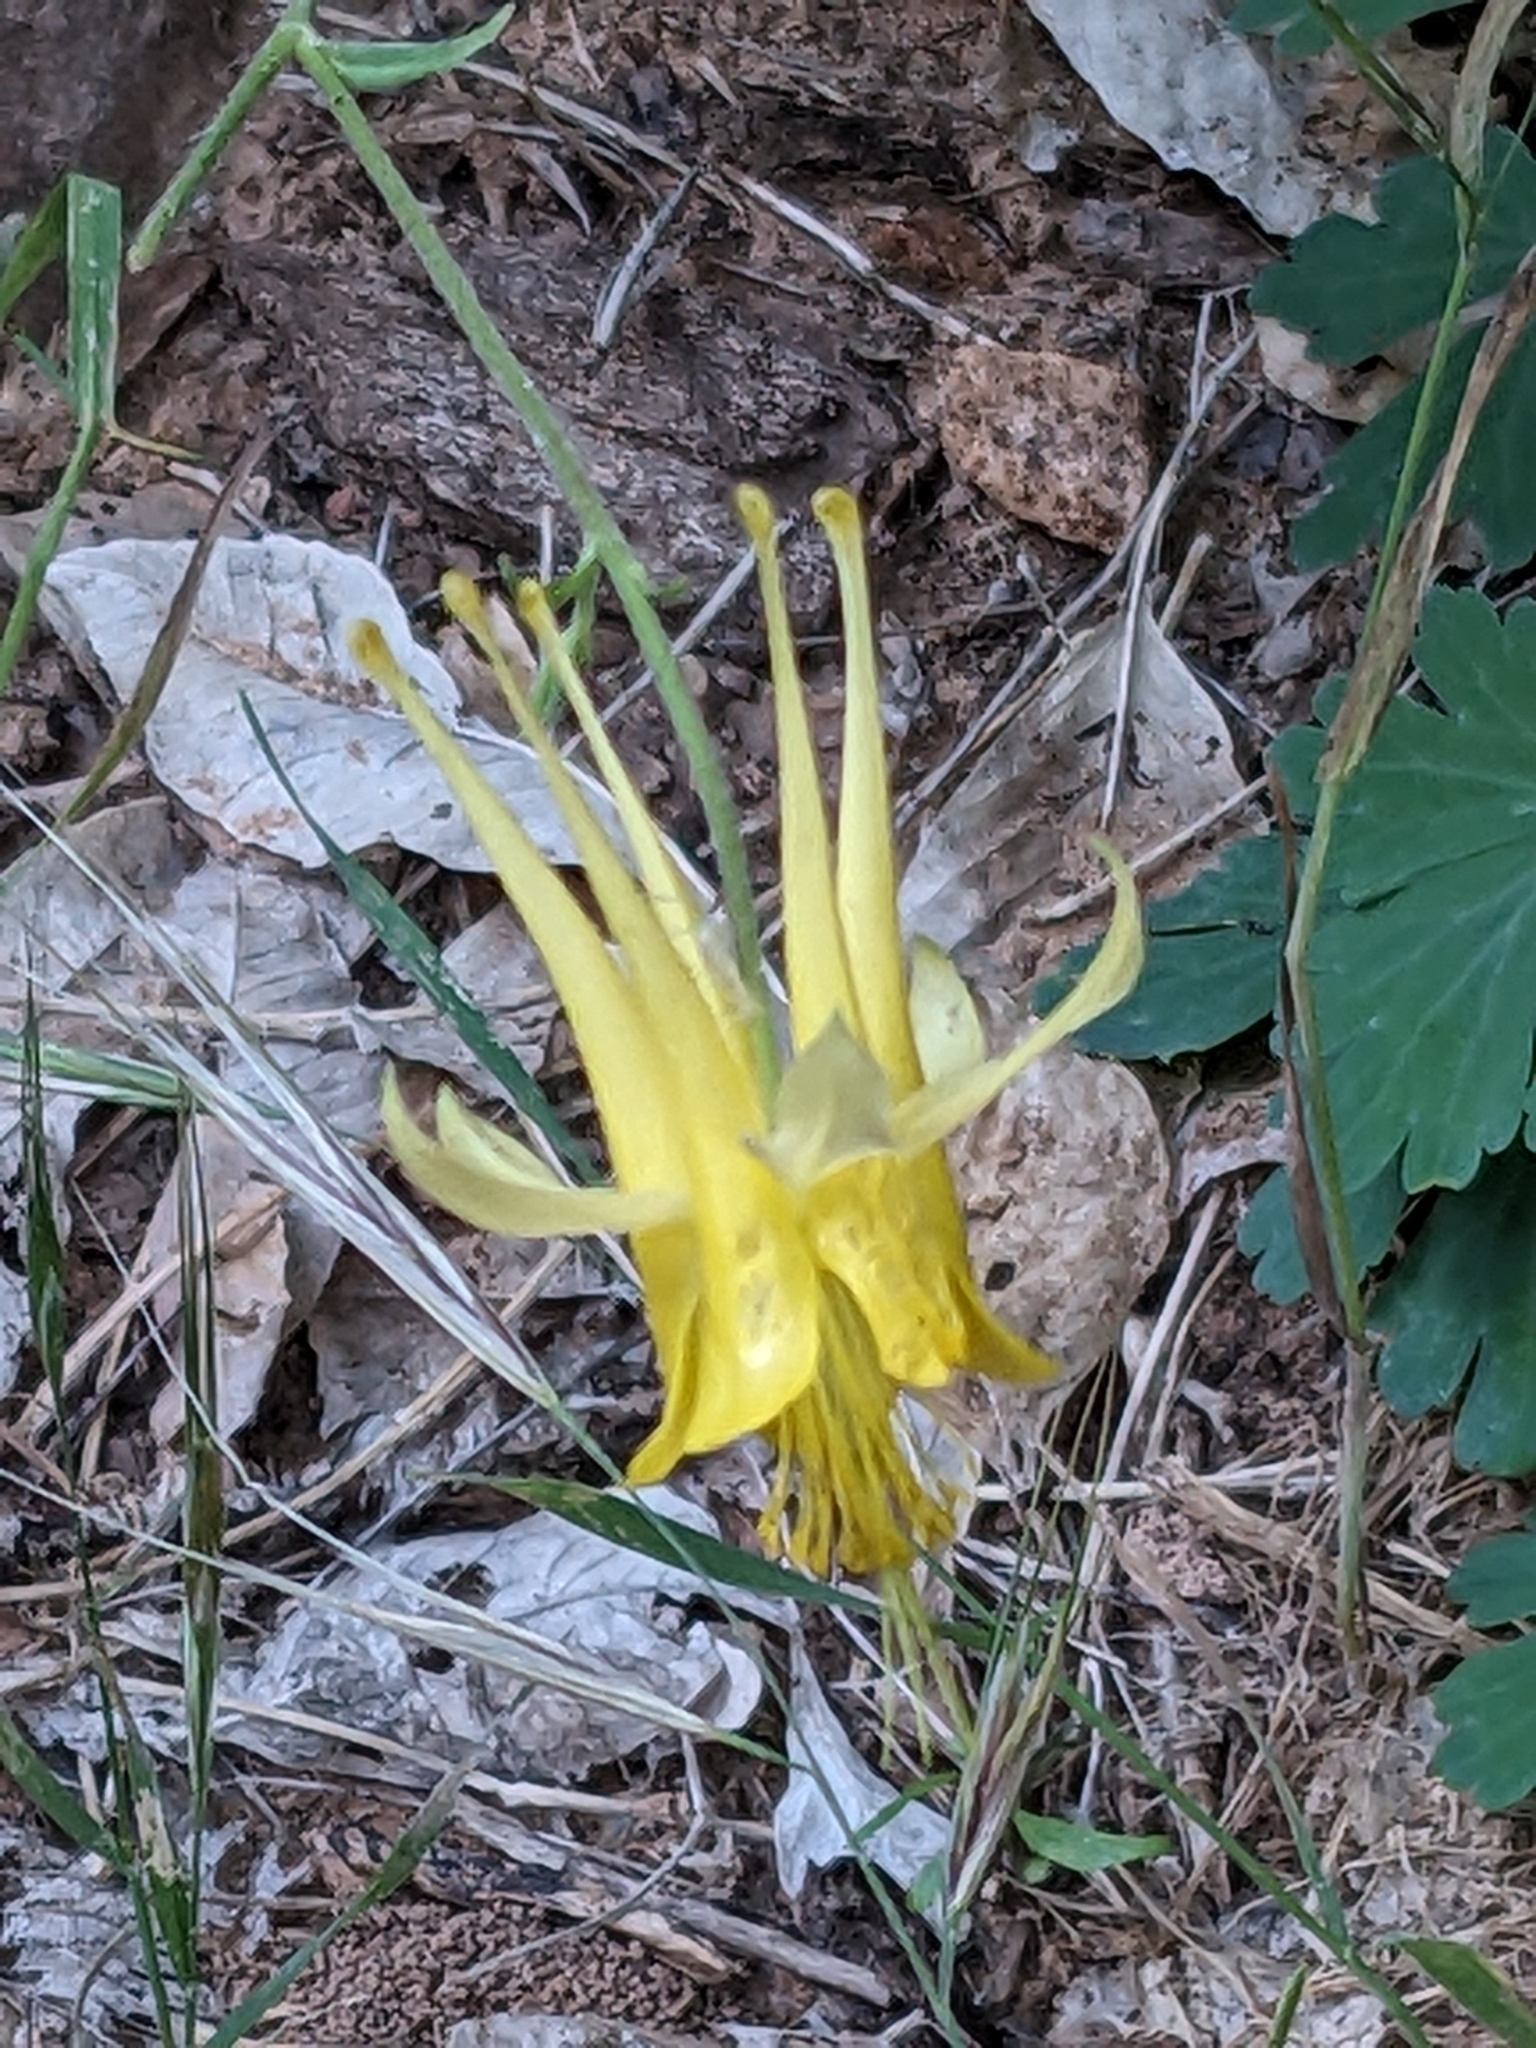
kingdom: Plantae
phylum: Tracheophyta
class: Magnoliopsida
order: Ranunculales
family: Ranunculaceae
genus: Aquilegia
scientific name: Aquilegia chrysantha
